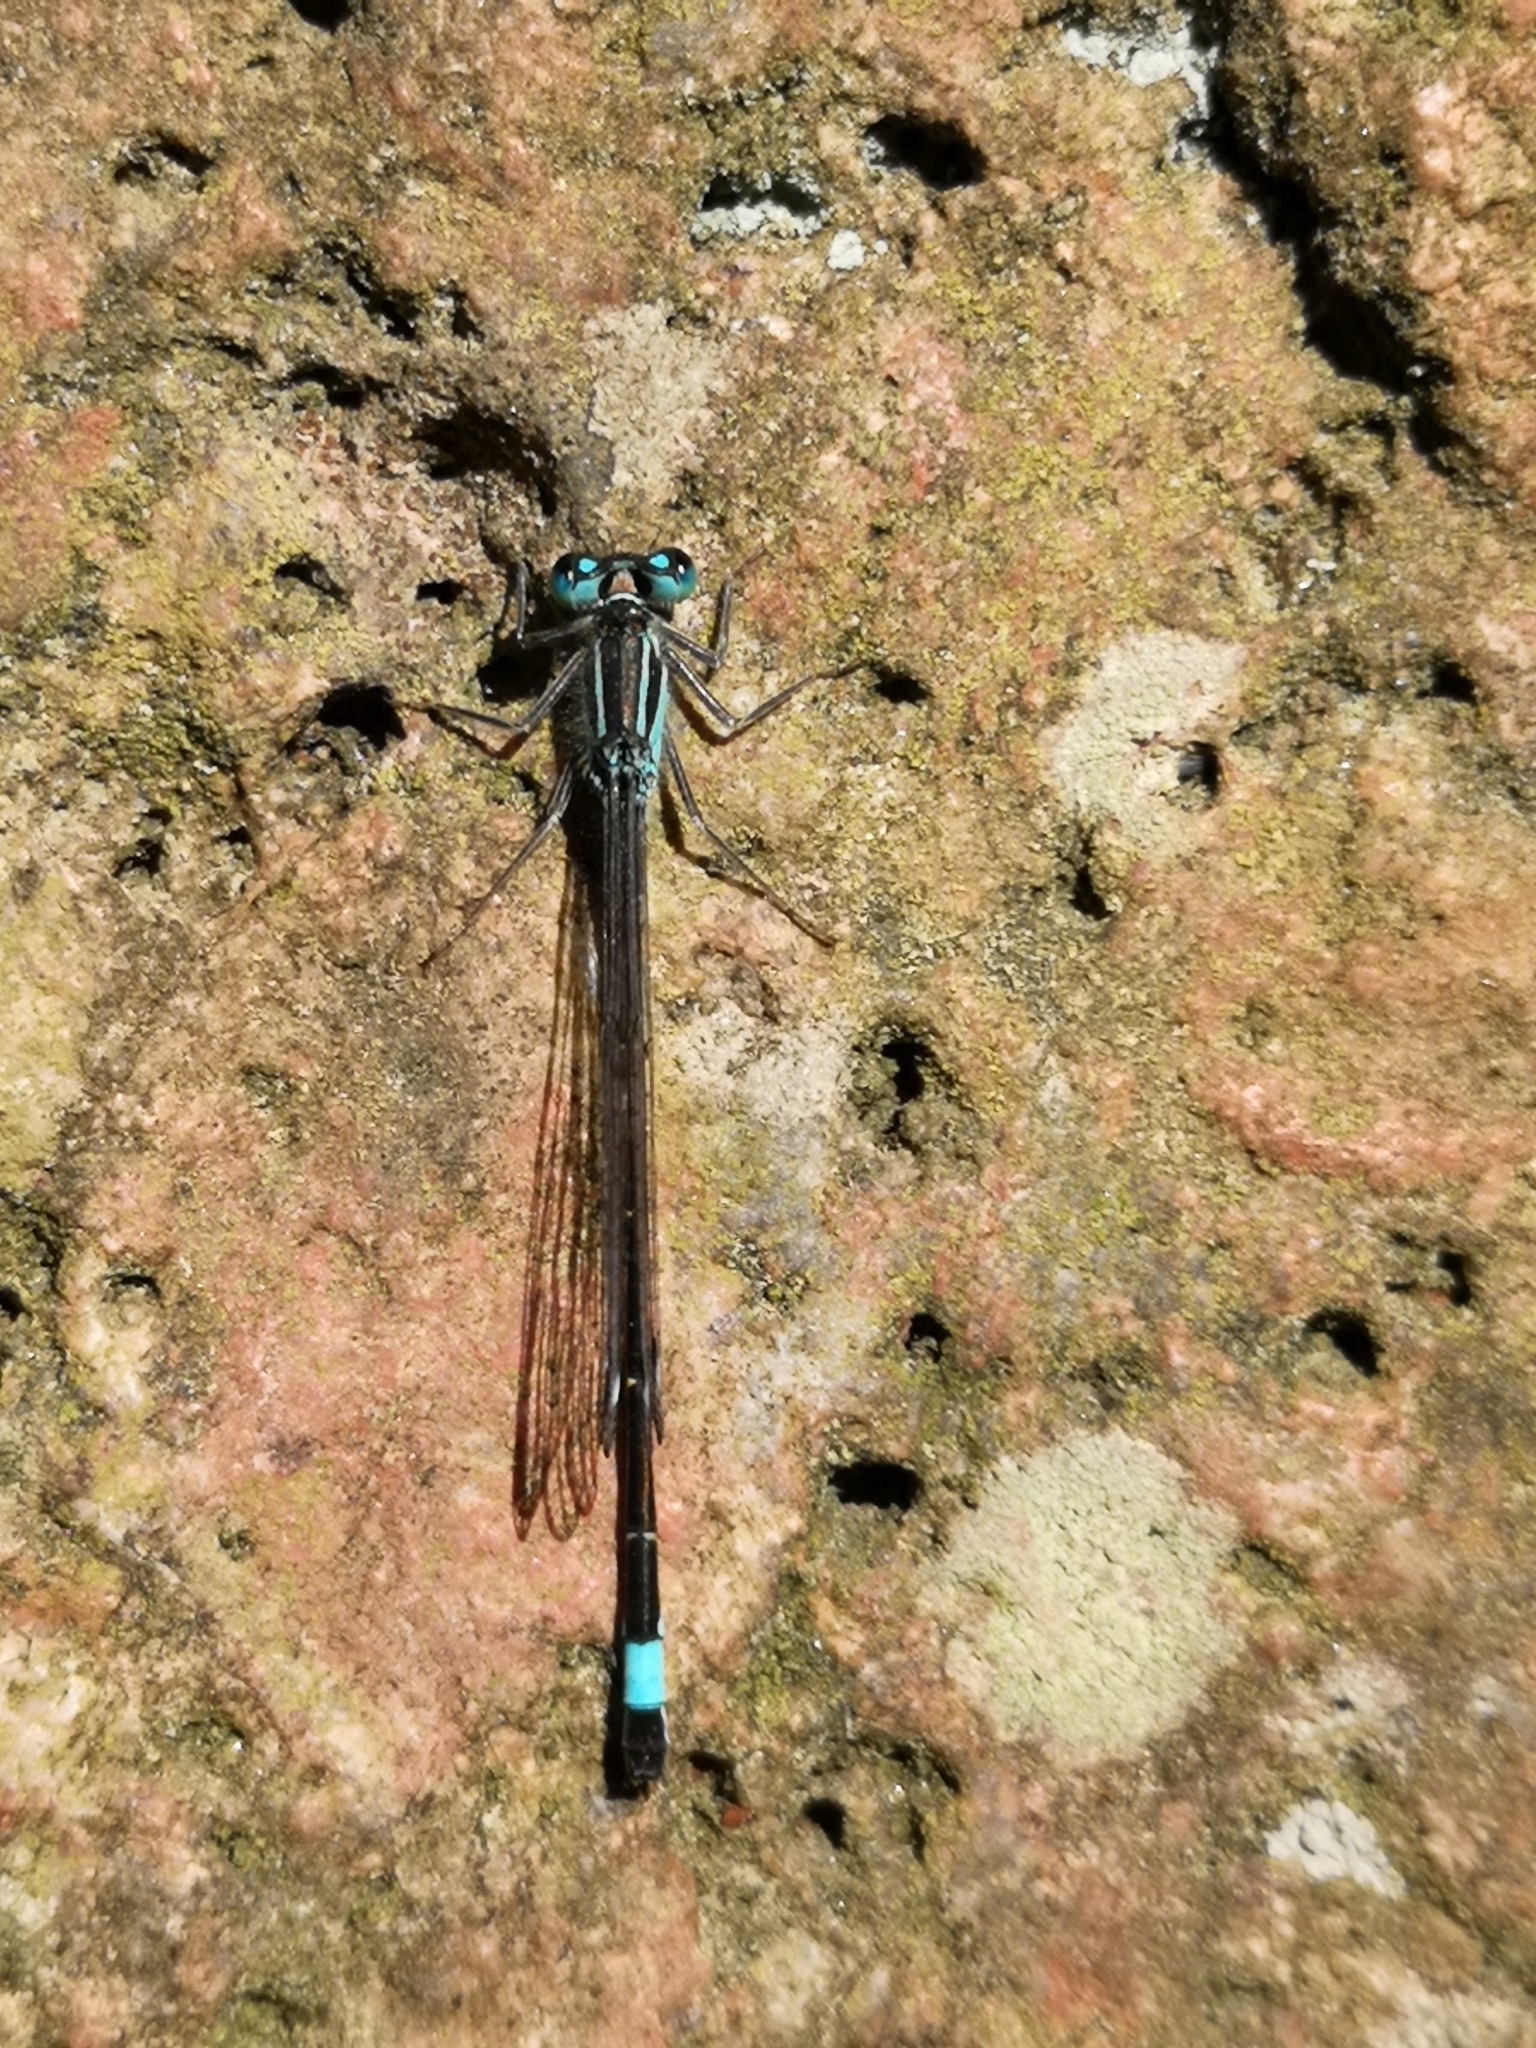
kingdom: Animalia
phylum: Arthropoda
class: Insecta
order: Odonata
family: Coenagrionidae
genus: Ischnura
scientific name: Ischnura elegans
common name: Blue-tailed damselfly
